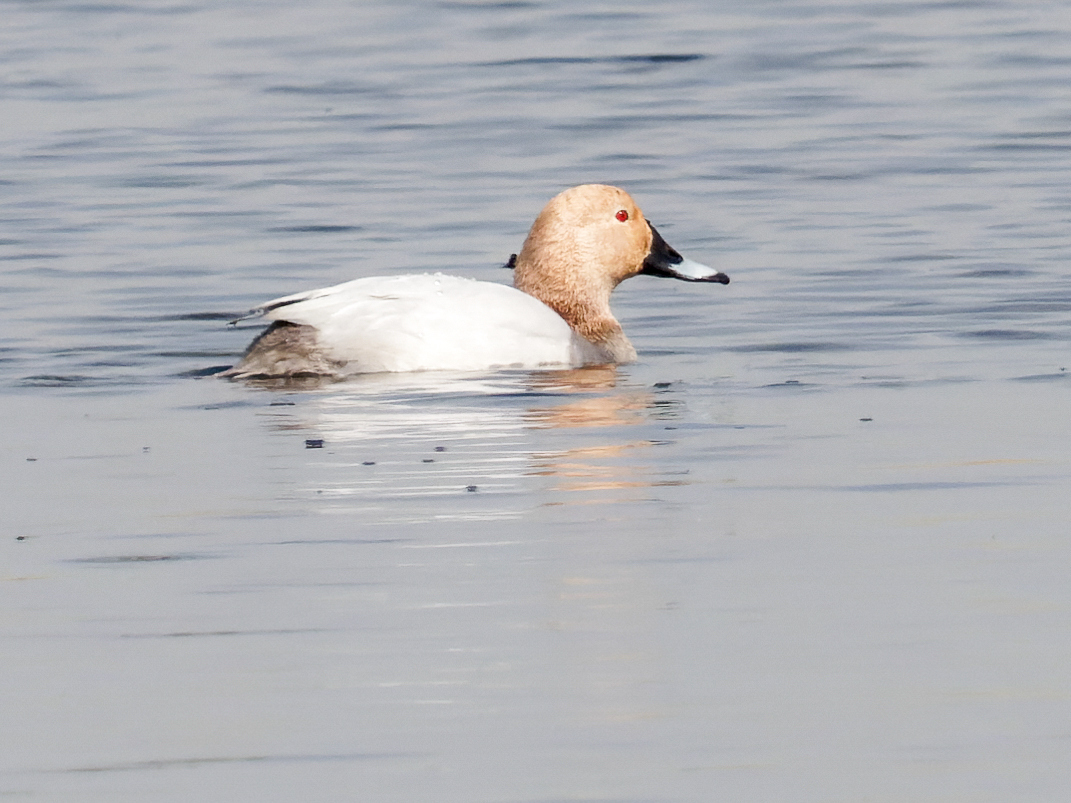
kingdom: Animalia
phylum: Chordata
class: Aves
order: Anseriformes
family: Anatidae
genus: Aythya
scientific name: Aythya ferina
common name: Common pochard
